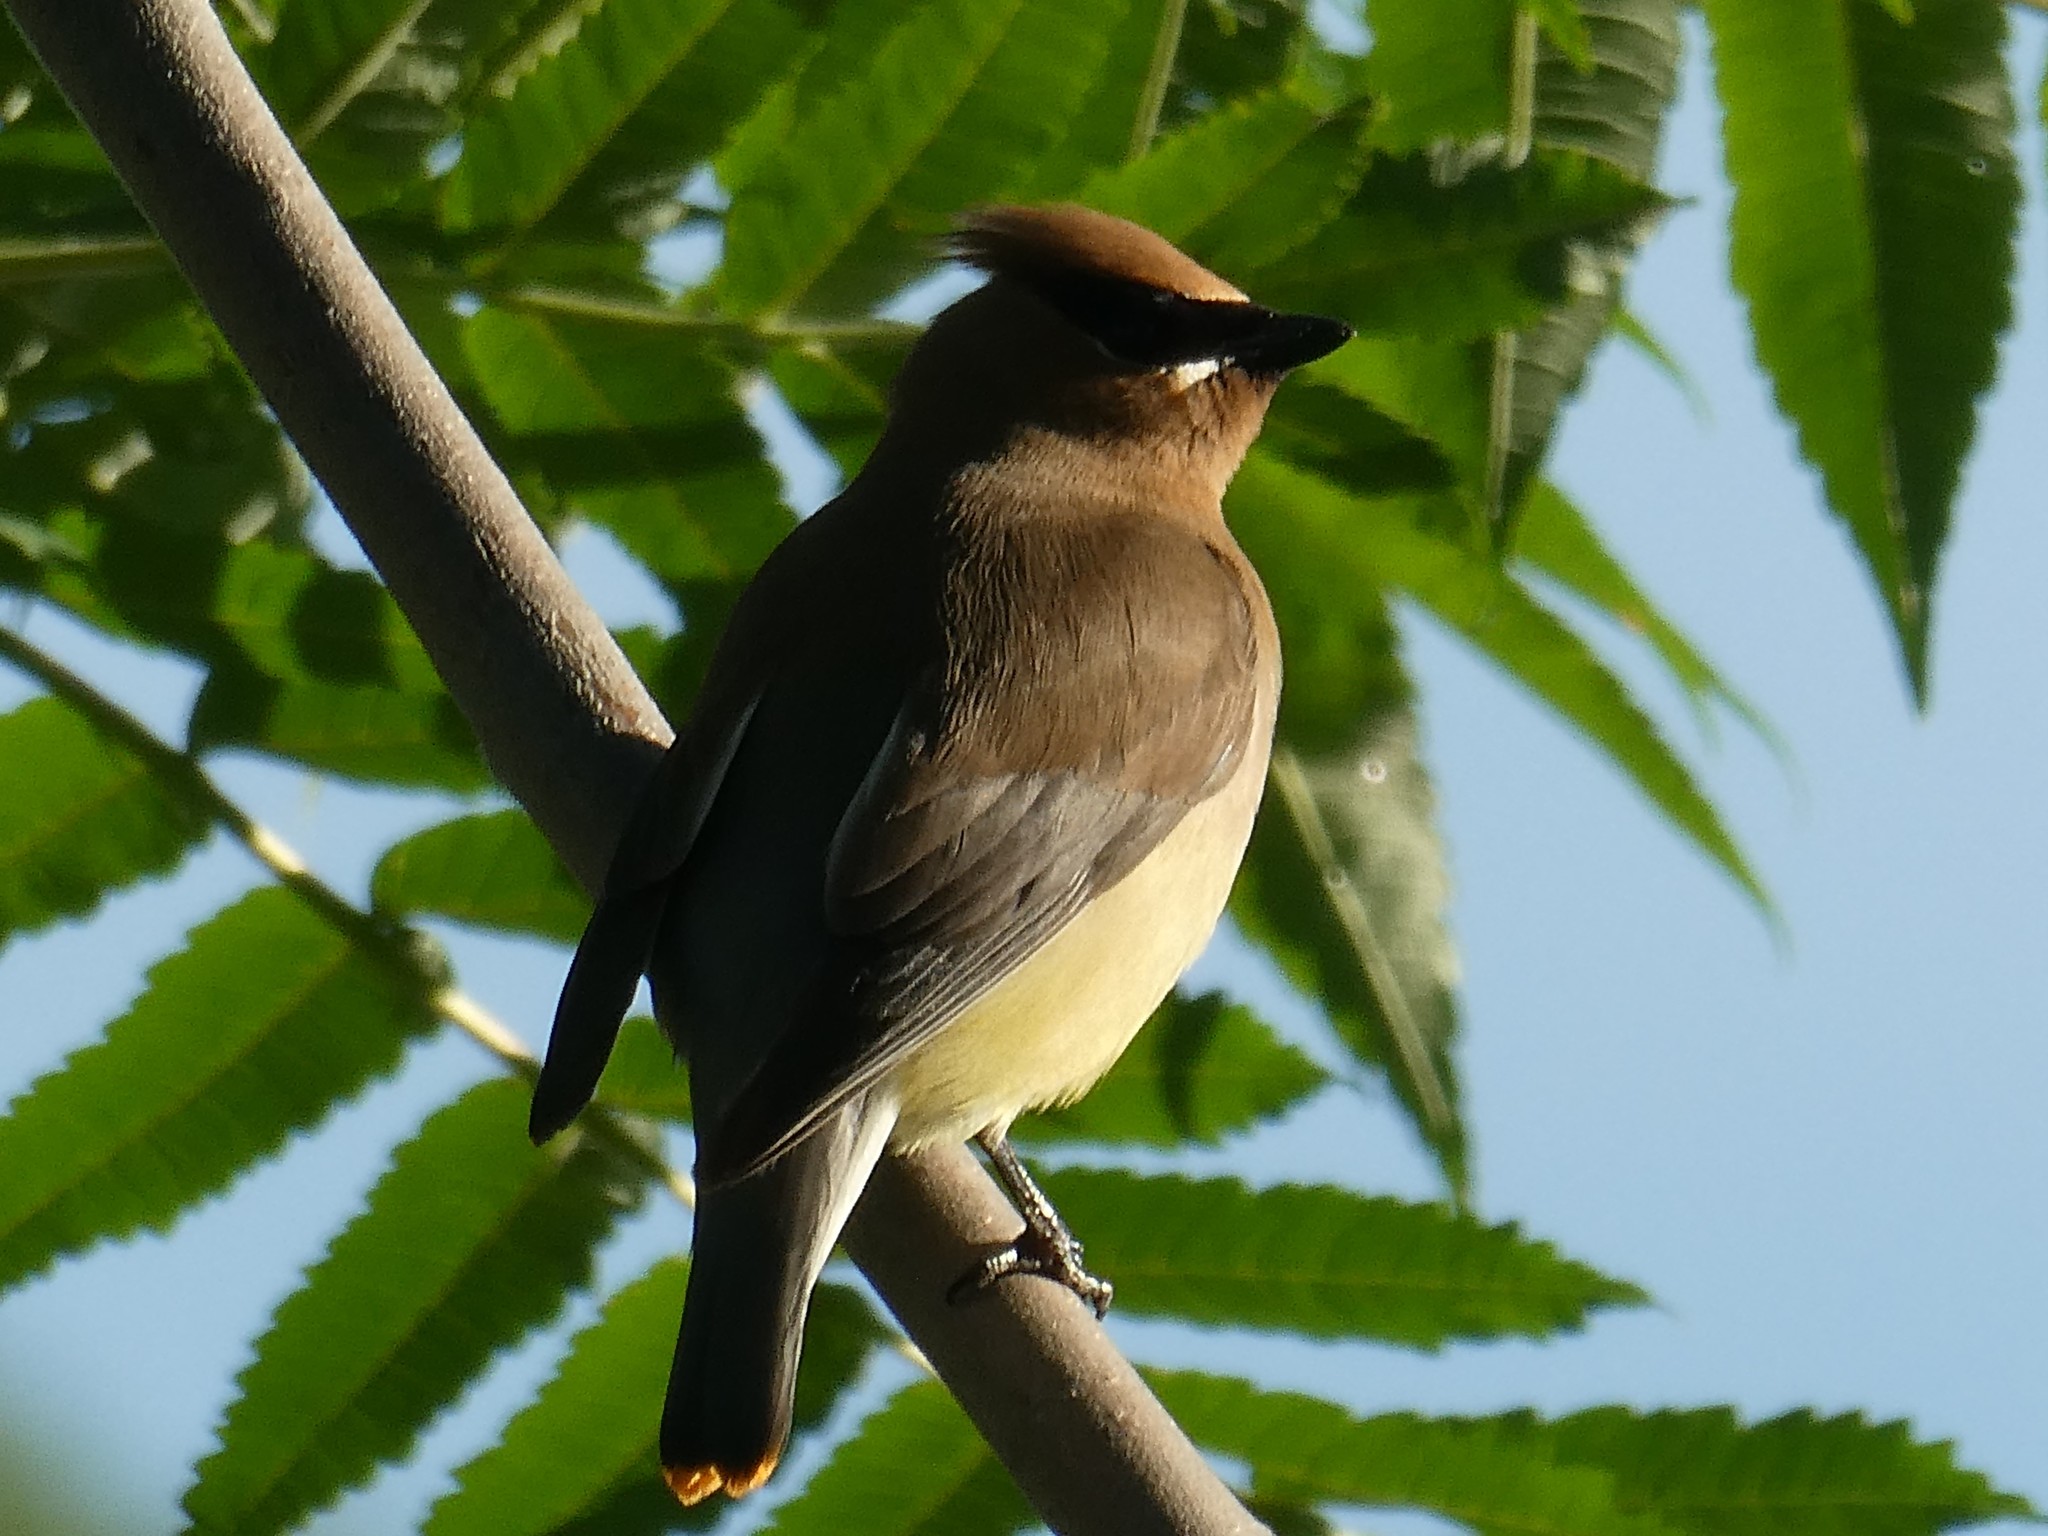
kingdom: Animalia
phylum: Chordata
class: Aves
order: Passeriformes
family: Bombycillidae
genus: Bombycilla
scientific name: Bombycilla cedrorum
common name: Cedar waxwing
